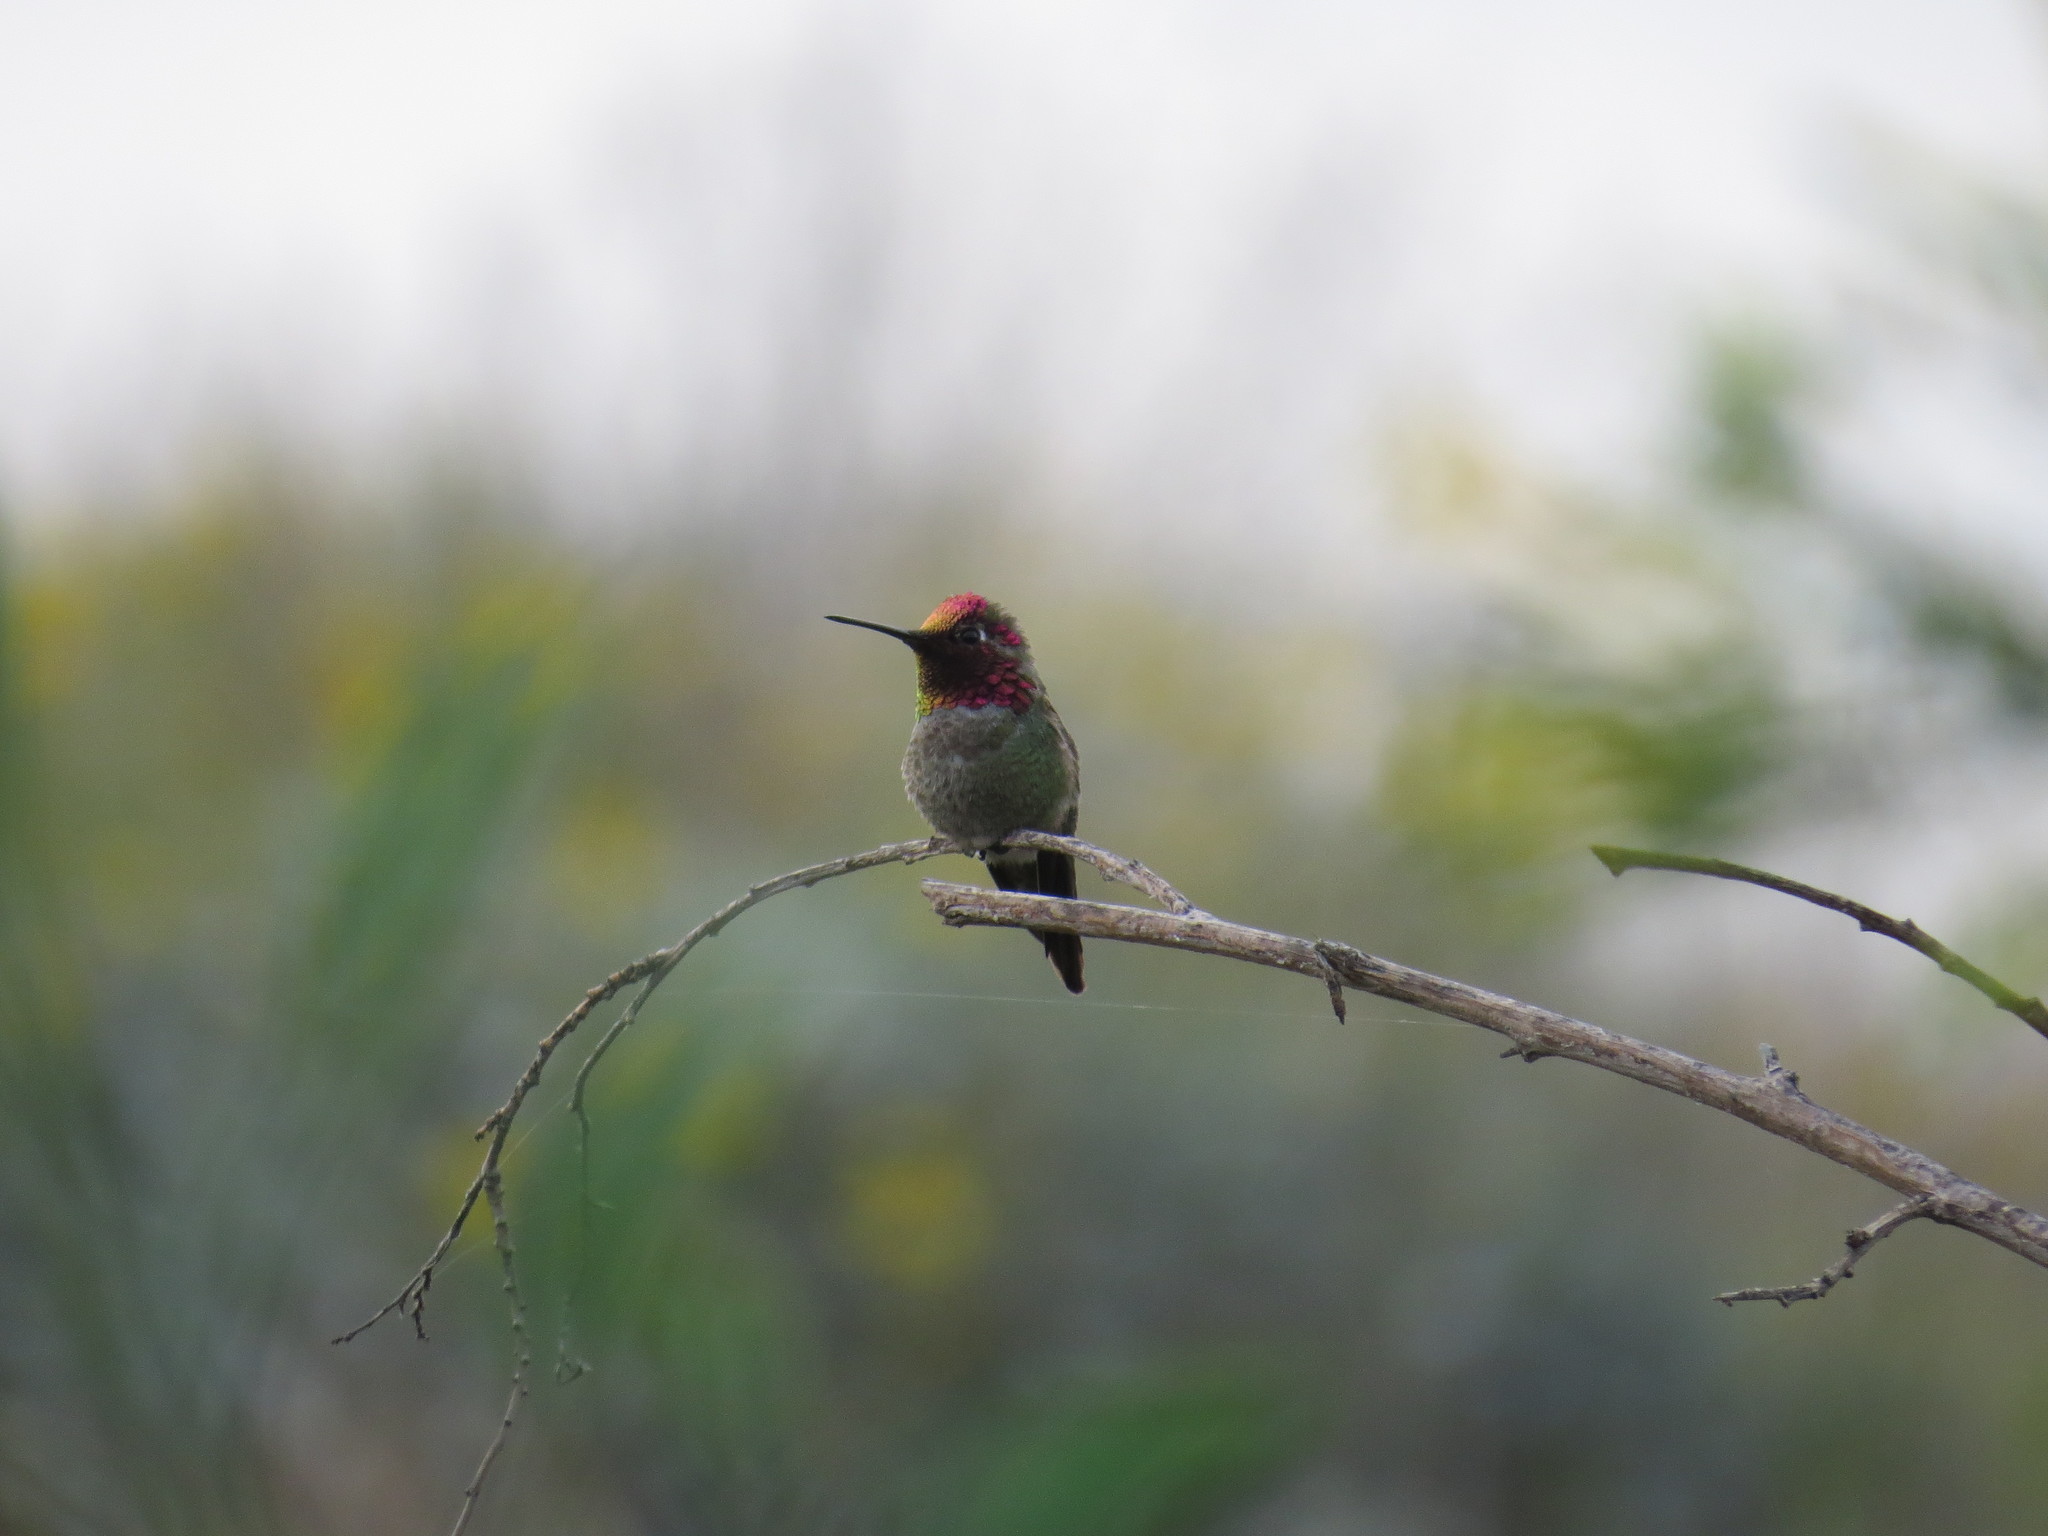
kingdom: Animalia
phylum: Chordata
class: Aves
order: Apodiformes
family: Trochilidae
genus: Calypte
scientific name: Calypte anna
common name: Anna's hummingbird
